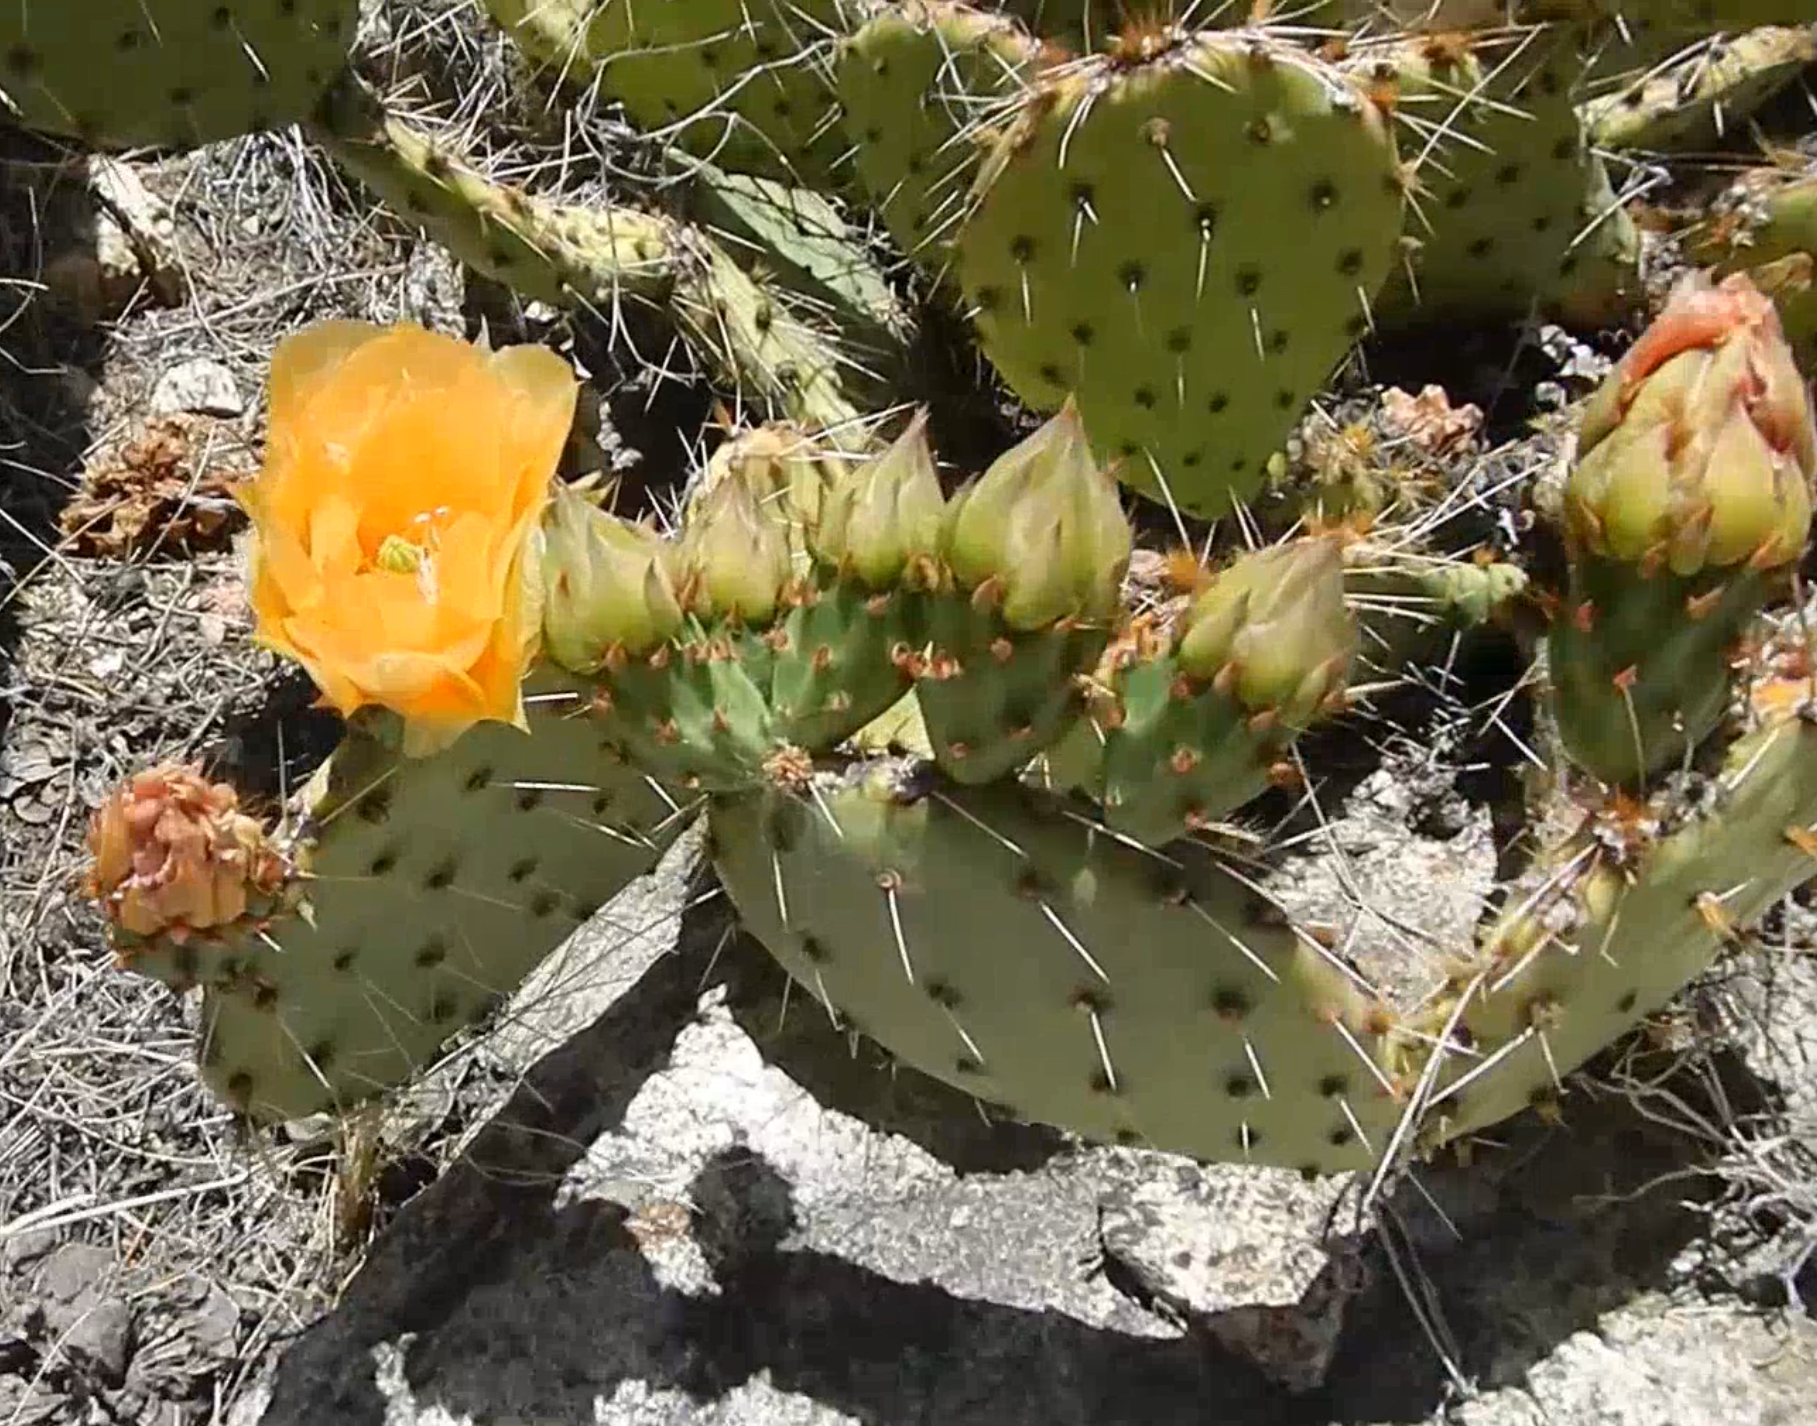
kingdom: Plantae
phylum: Tracheophyta
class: Magnoliopsida
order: Caryophyllales
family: Cactaceae
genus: Opuntia
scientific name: Opuntia phaeacantha
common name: New mexico prickly-pear
